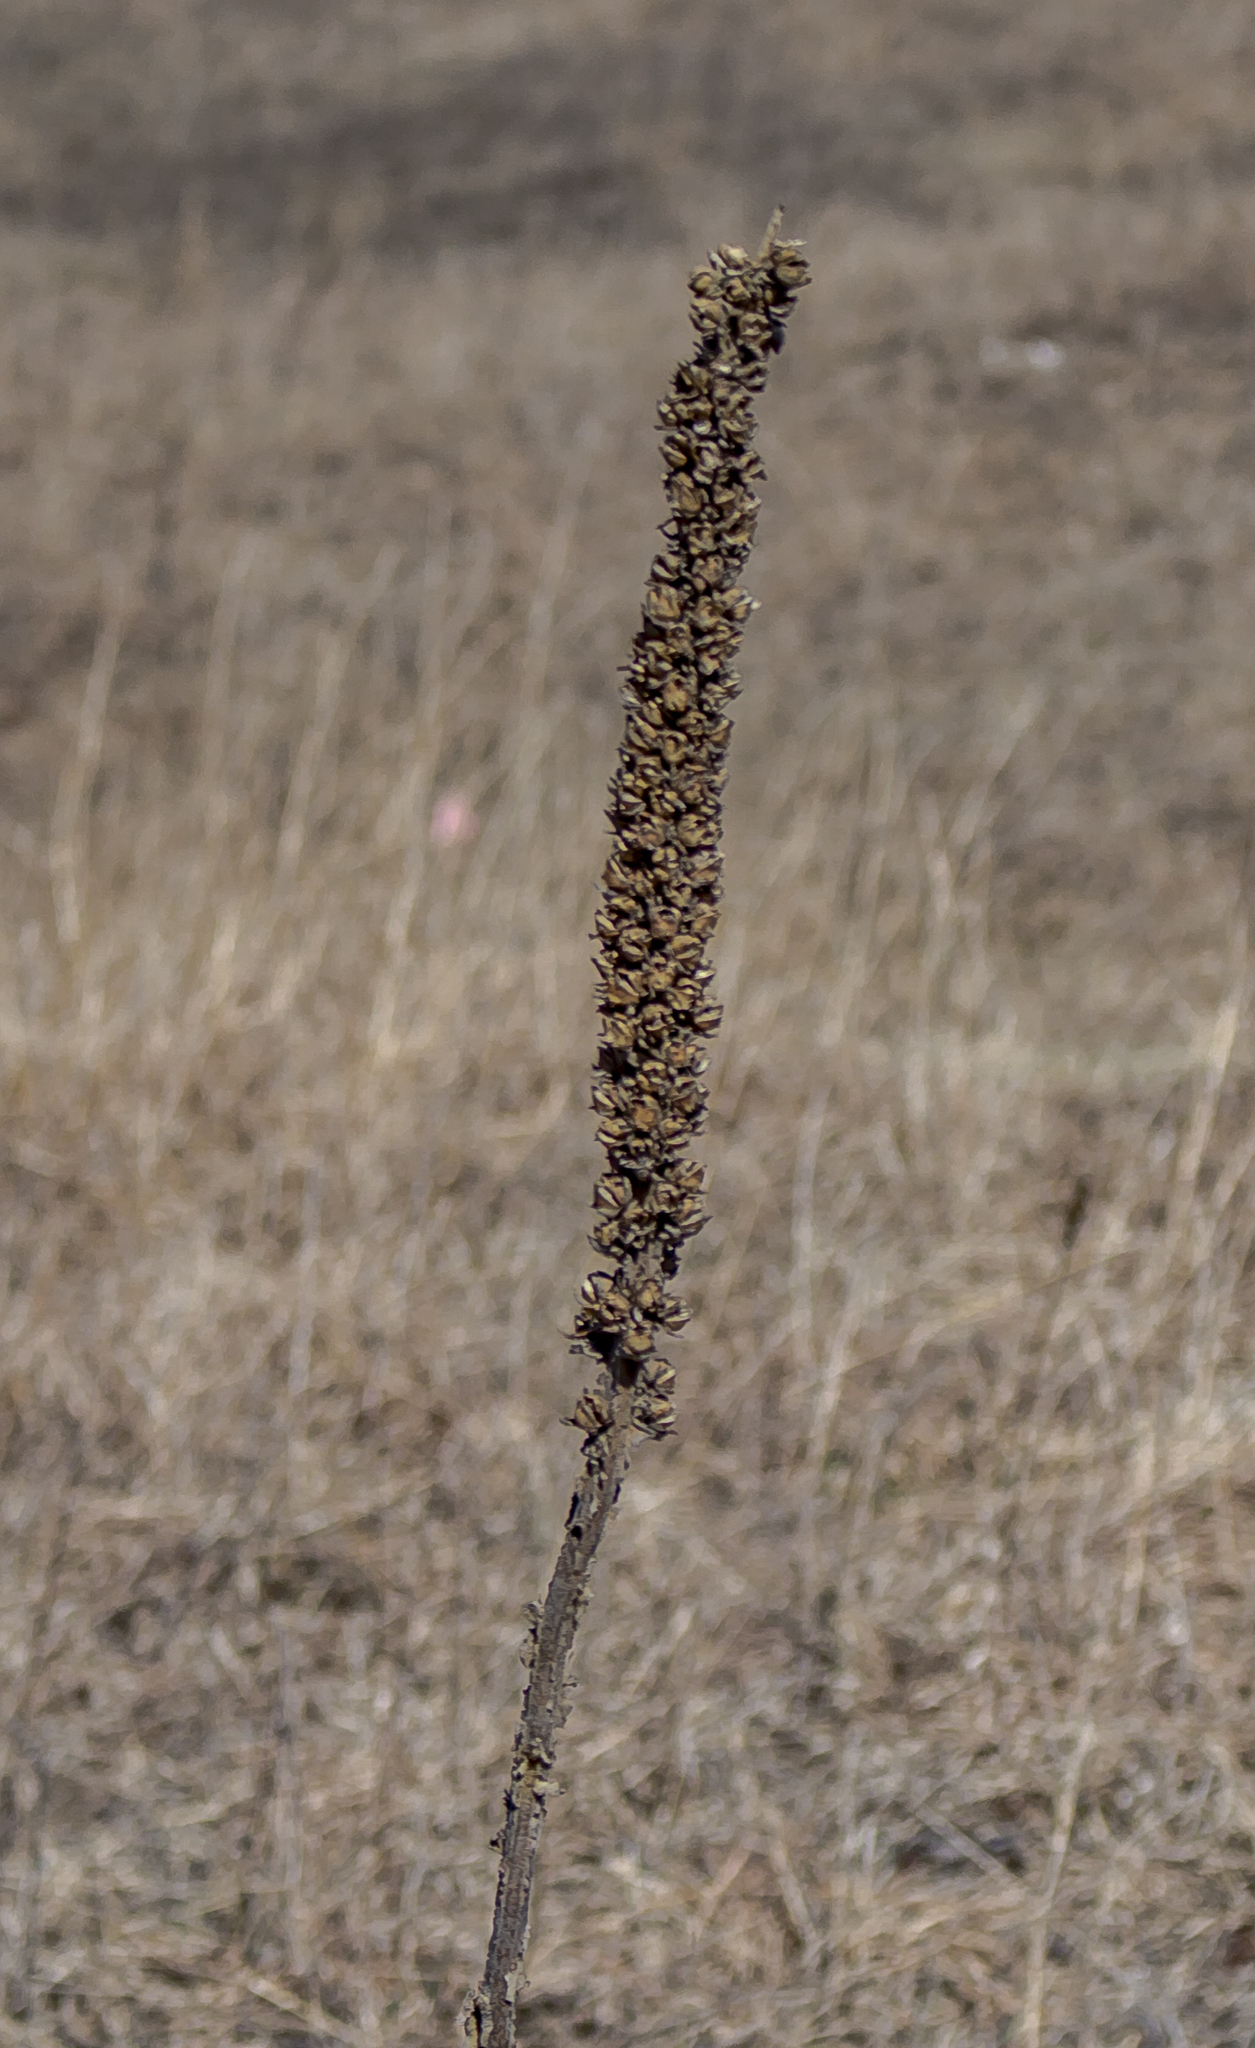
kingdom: Plantae
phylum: Tracheophyta
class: Magnoliopsida
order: Lamiales
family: Scrophulariaceae
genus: Verbascum
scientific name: Verbascum thapsus
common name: Common mullein
